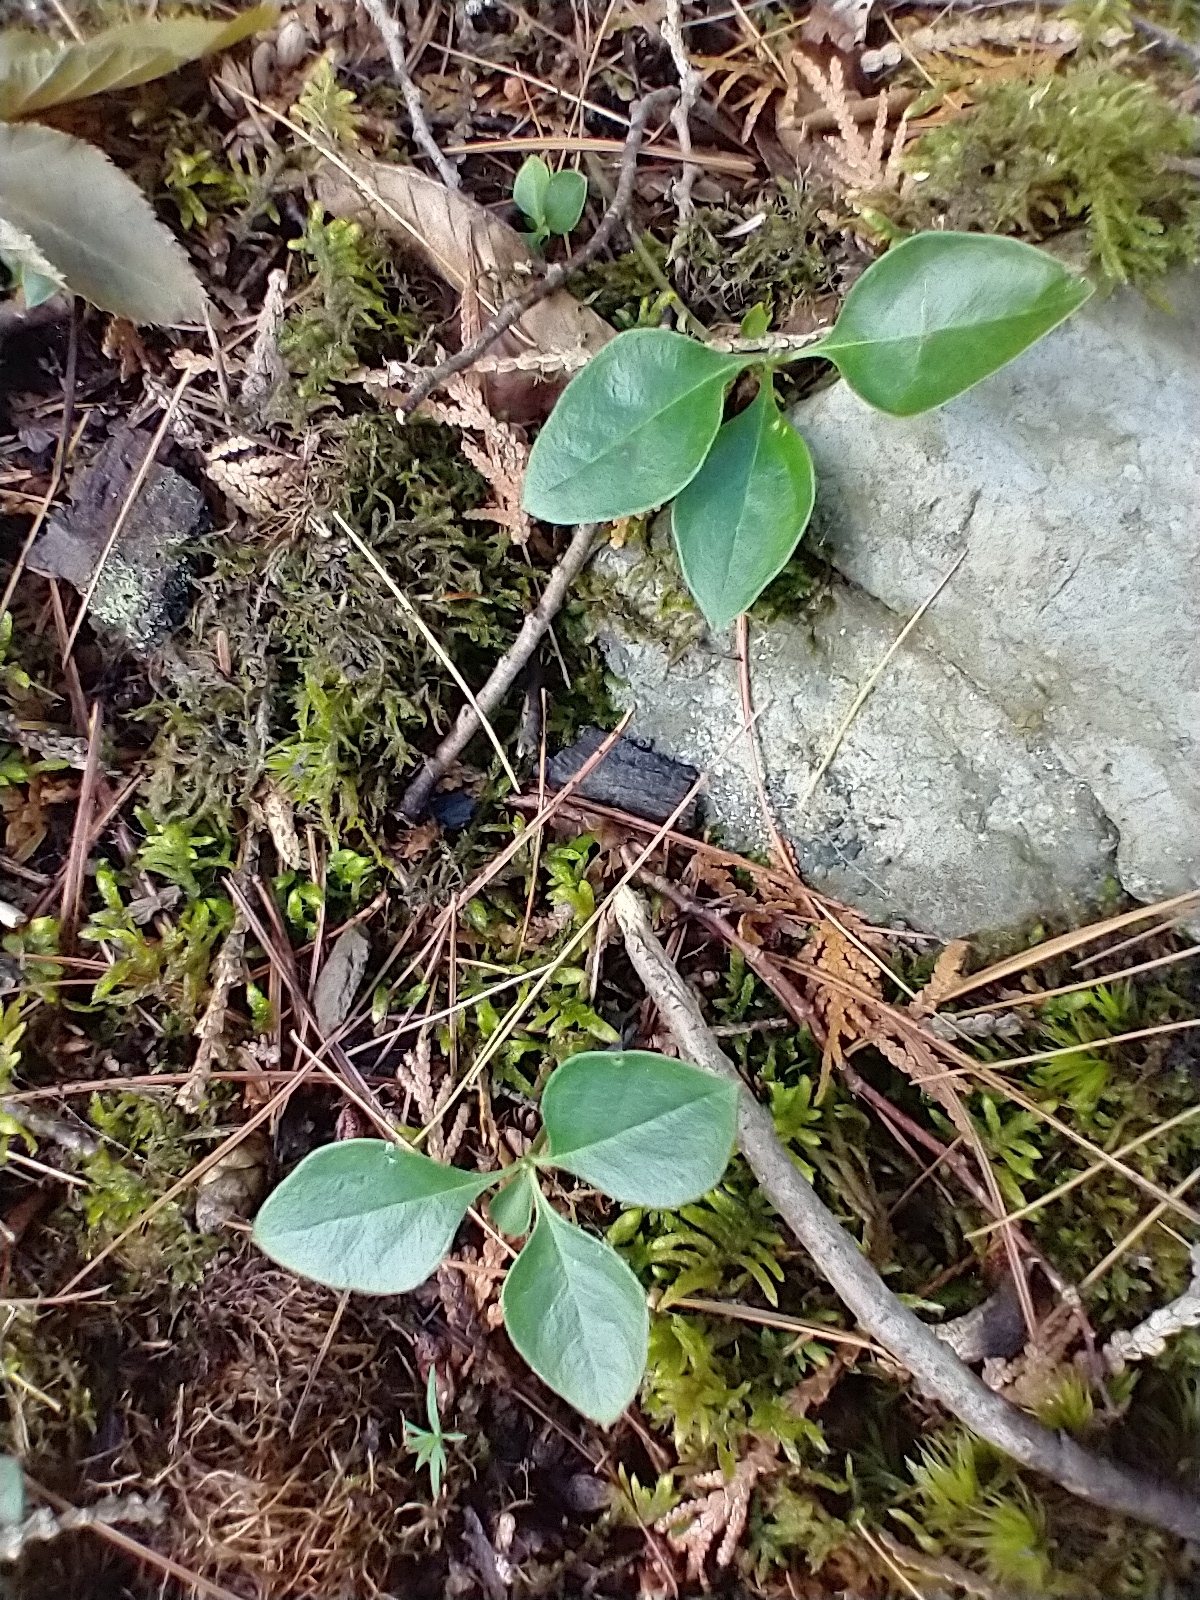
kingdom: Plantae
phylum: Tracheophyta
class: Magnoliopsida
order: Fabales
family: Polygalaceae
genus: Polygaloides
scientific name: Polygaloides paucifolia
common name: Bird-on-the-wing
